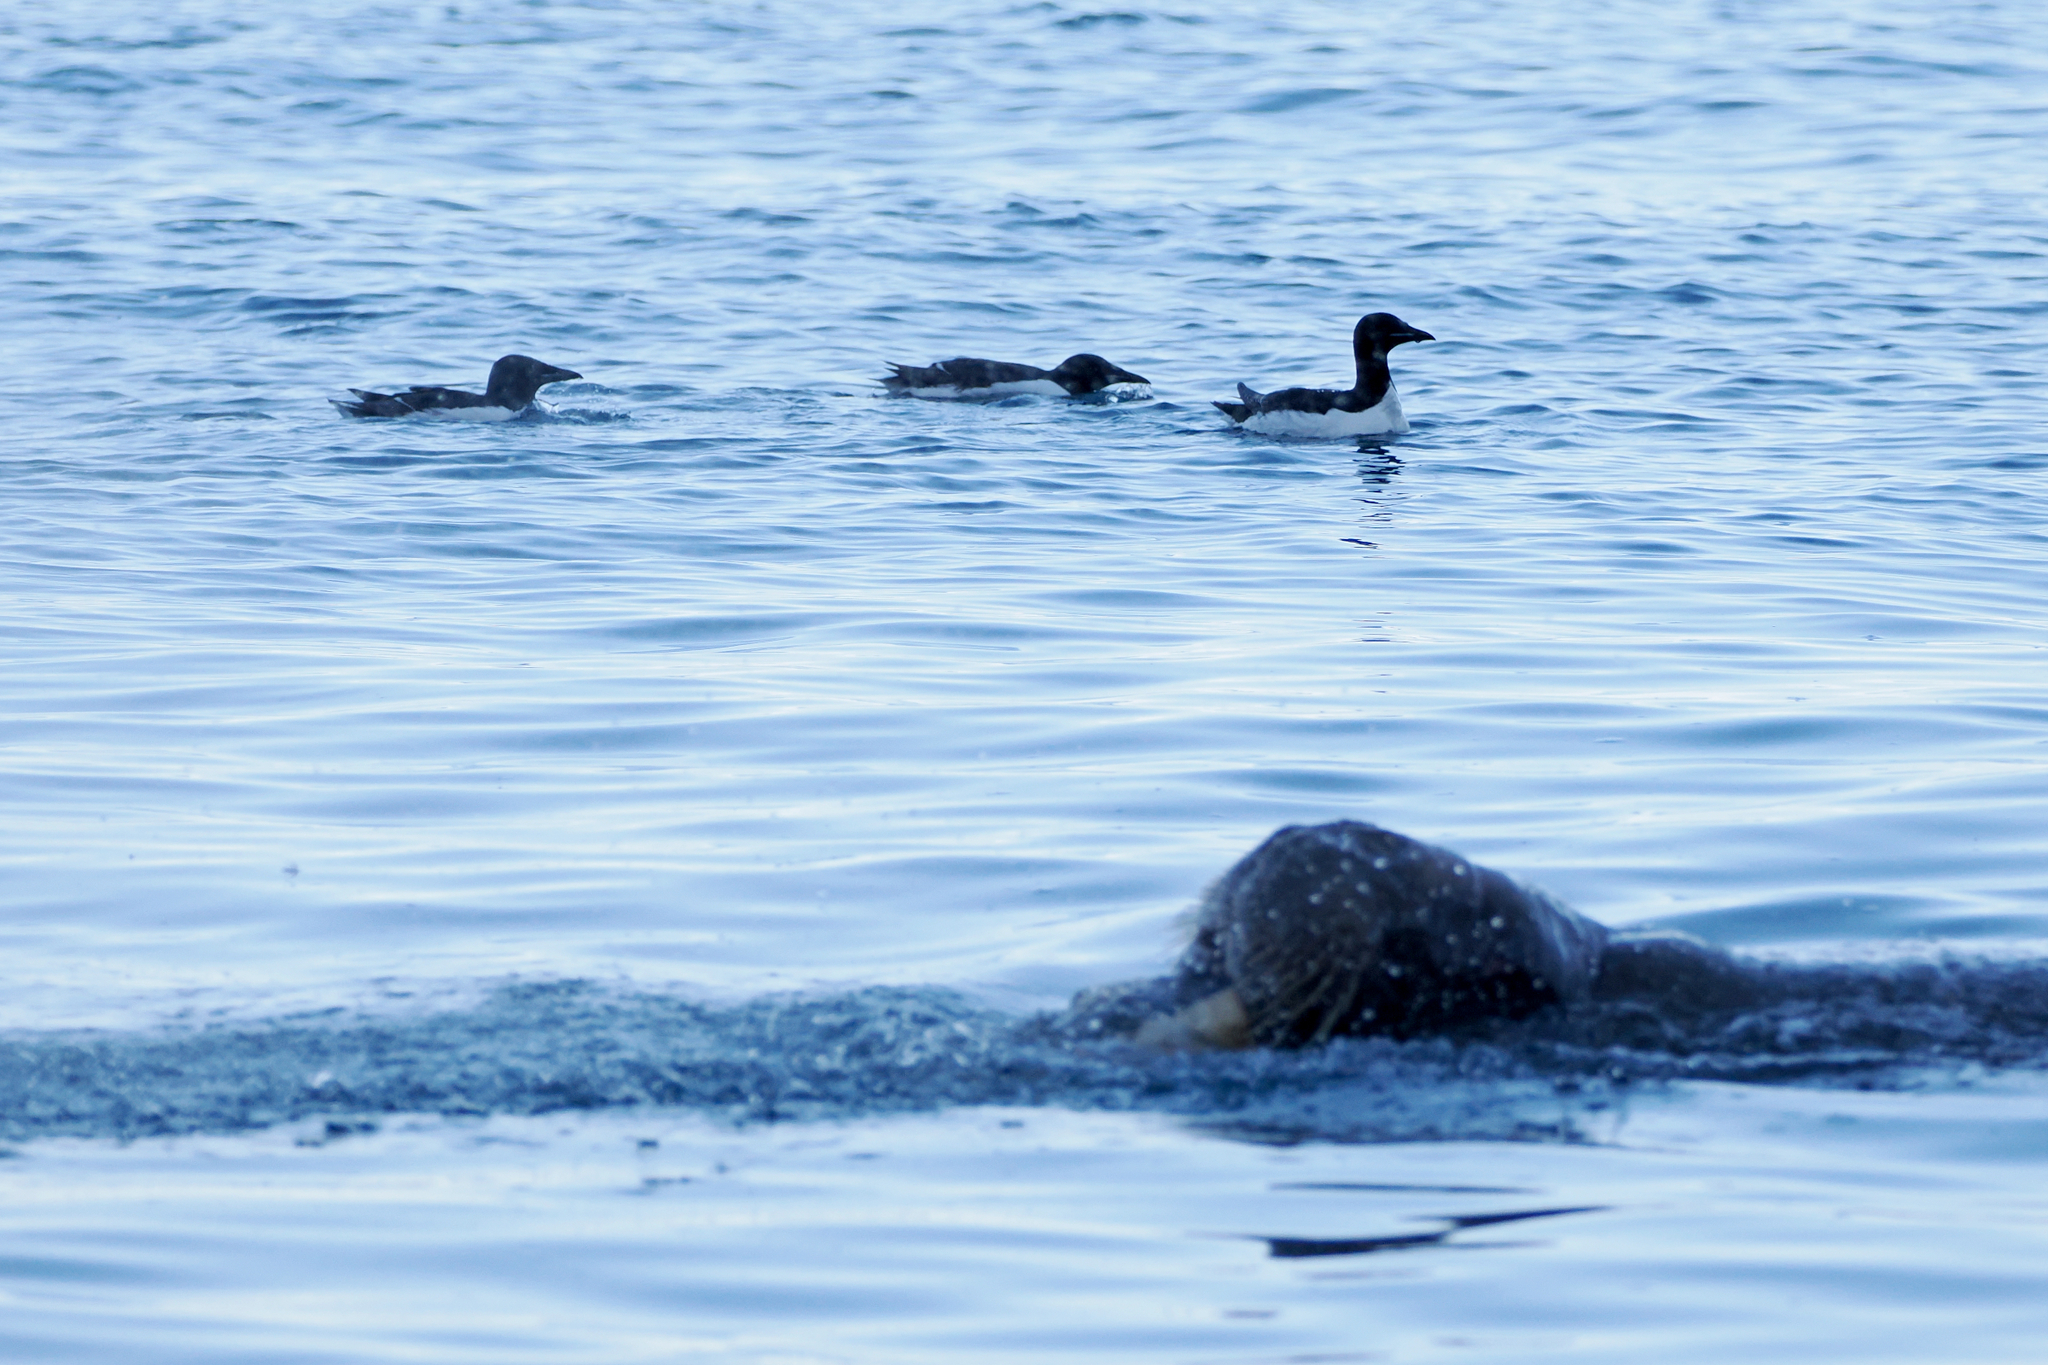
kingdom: Animalia
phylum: Chordata
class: Aves
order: Charadriiformes
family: Alcidae
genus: Uria
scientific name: Uria lomvia
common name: Thick-billed murre
